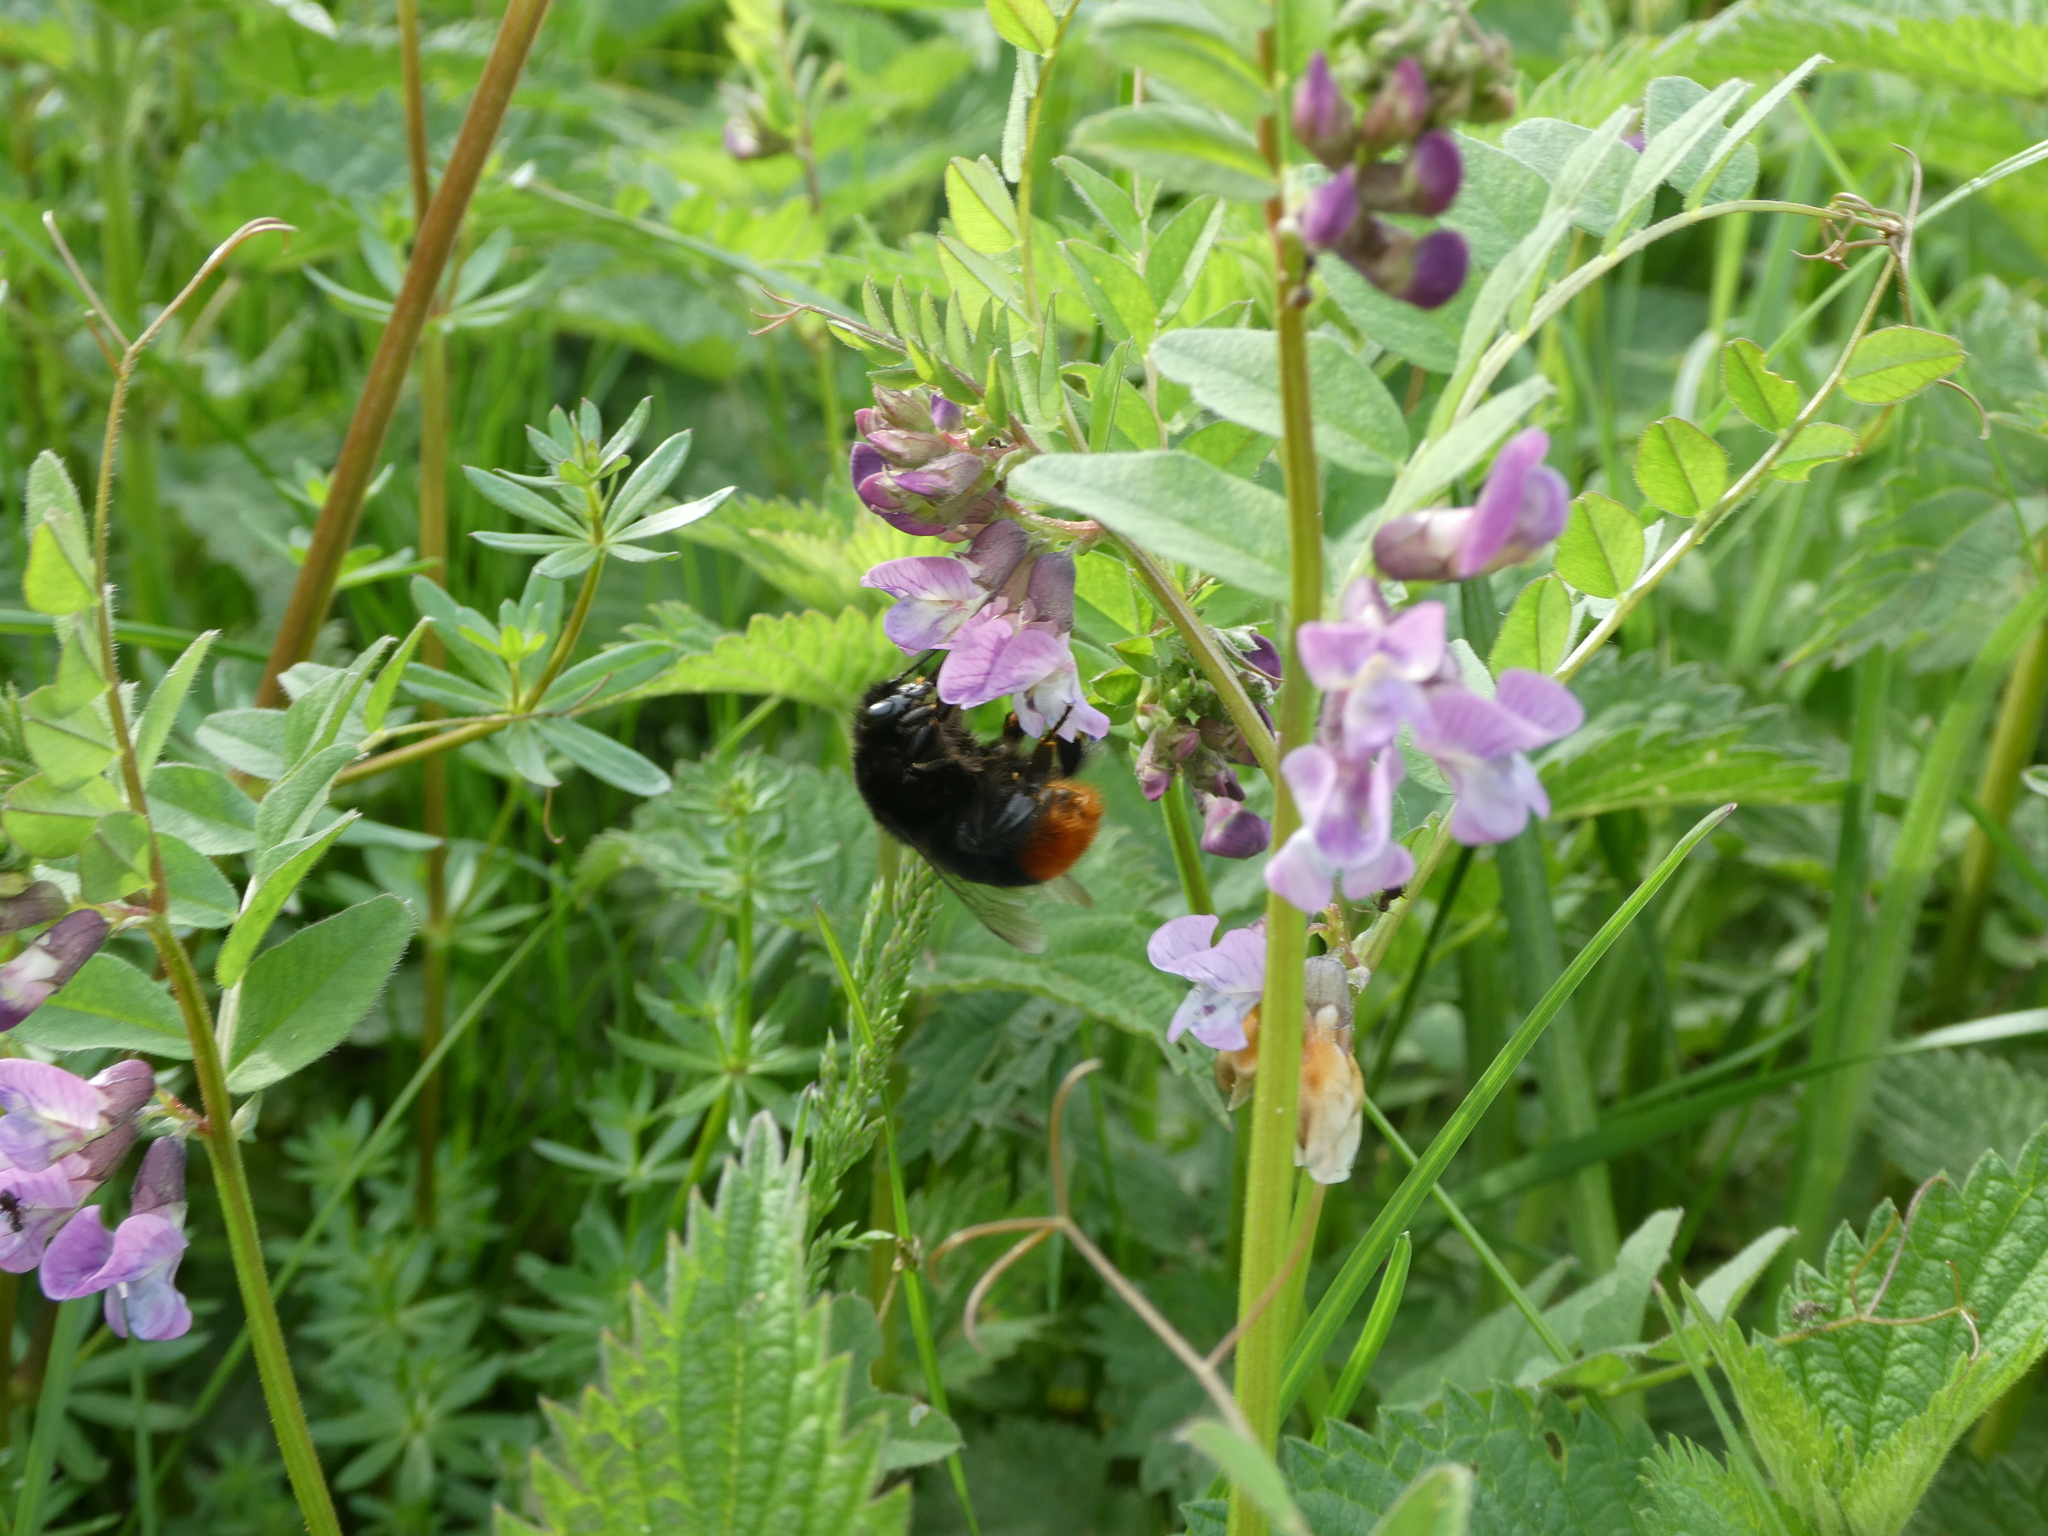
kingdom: Animalia
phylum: Arthropoda
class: Insecta
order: Hymenoptera
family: Apidae
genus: Bombus
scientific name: Bombus lapidarius
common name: Large red-tailed humble-bee
